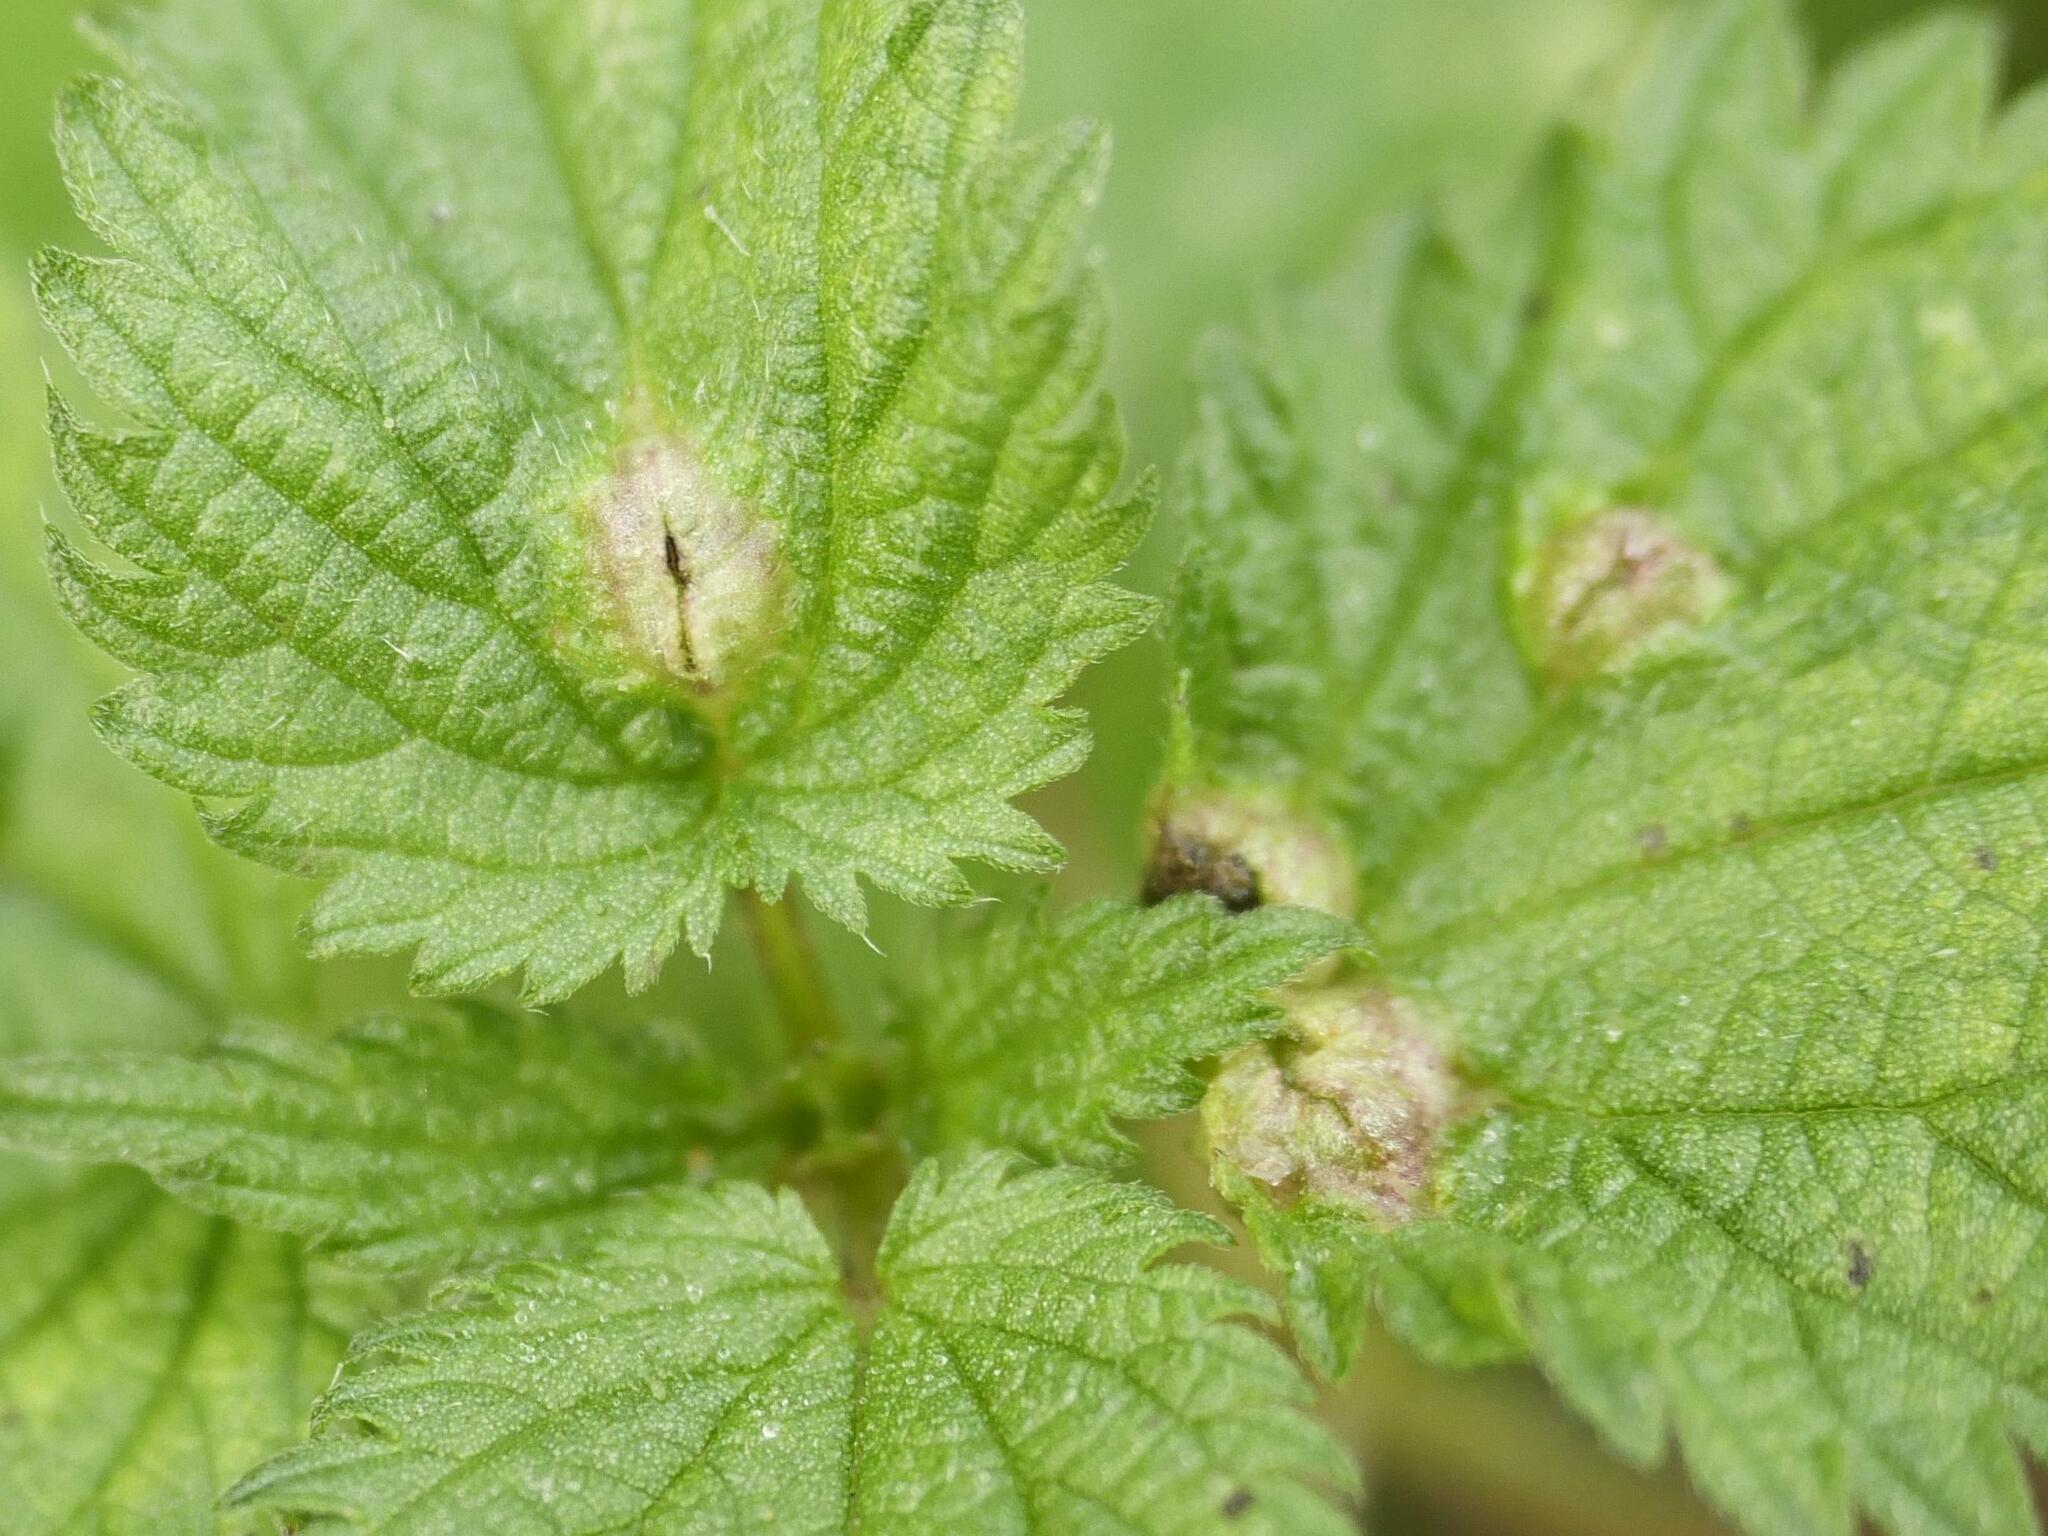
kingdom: Animalia
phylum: Arthropoda
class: Insecta
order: Diptera
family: Cecidomyiidae
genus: Dasineura
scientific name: Dasineura urticae
